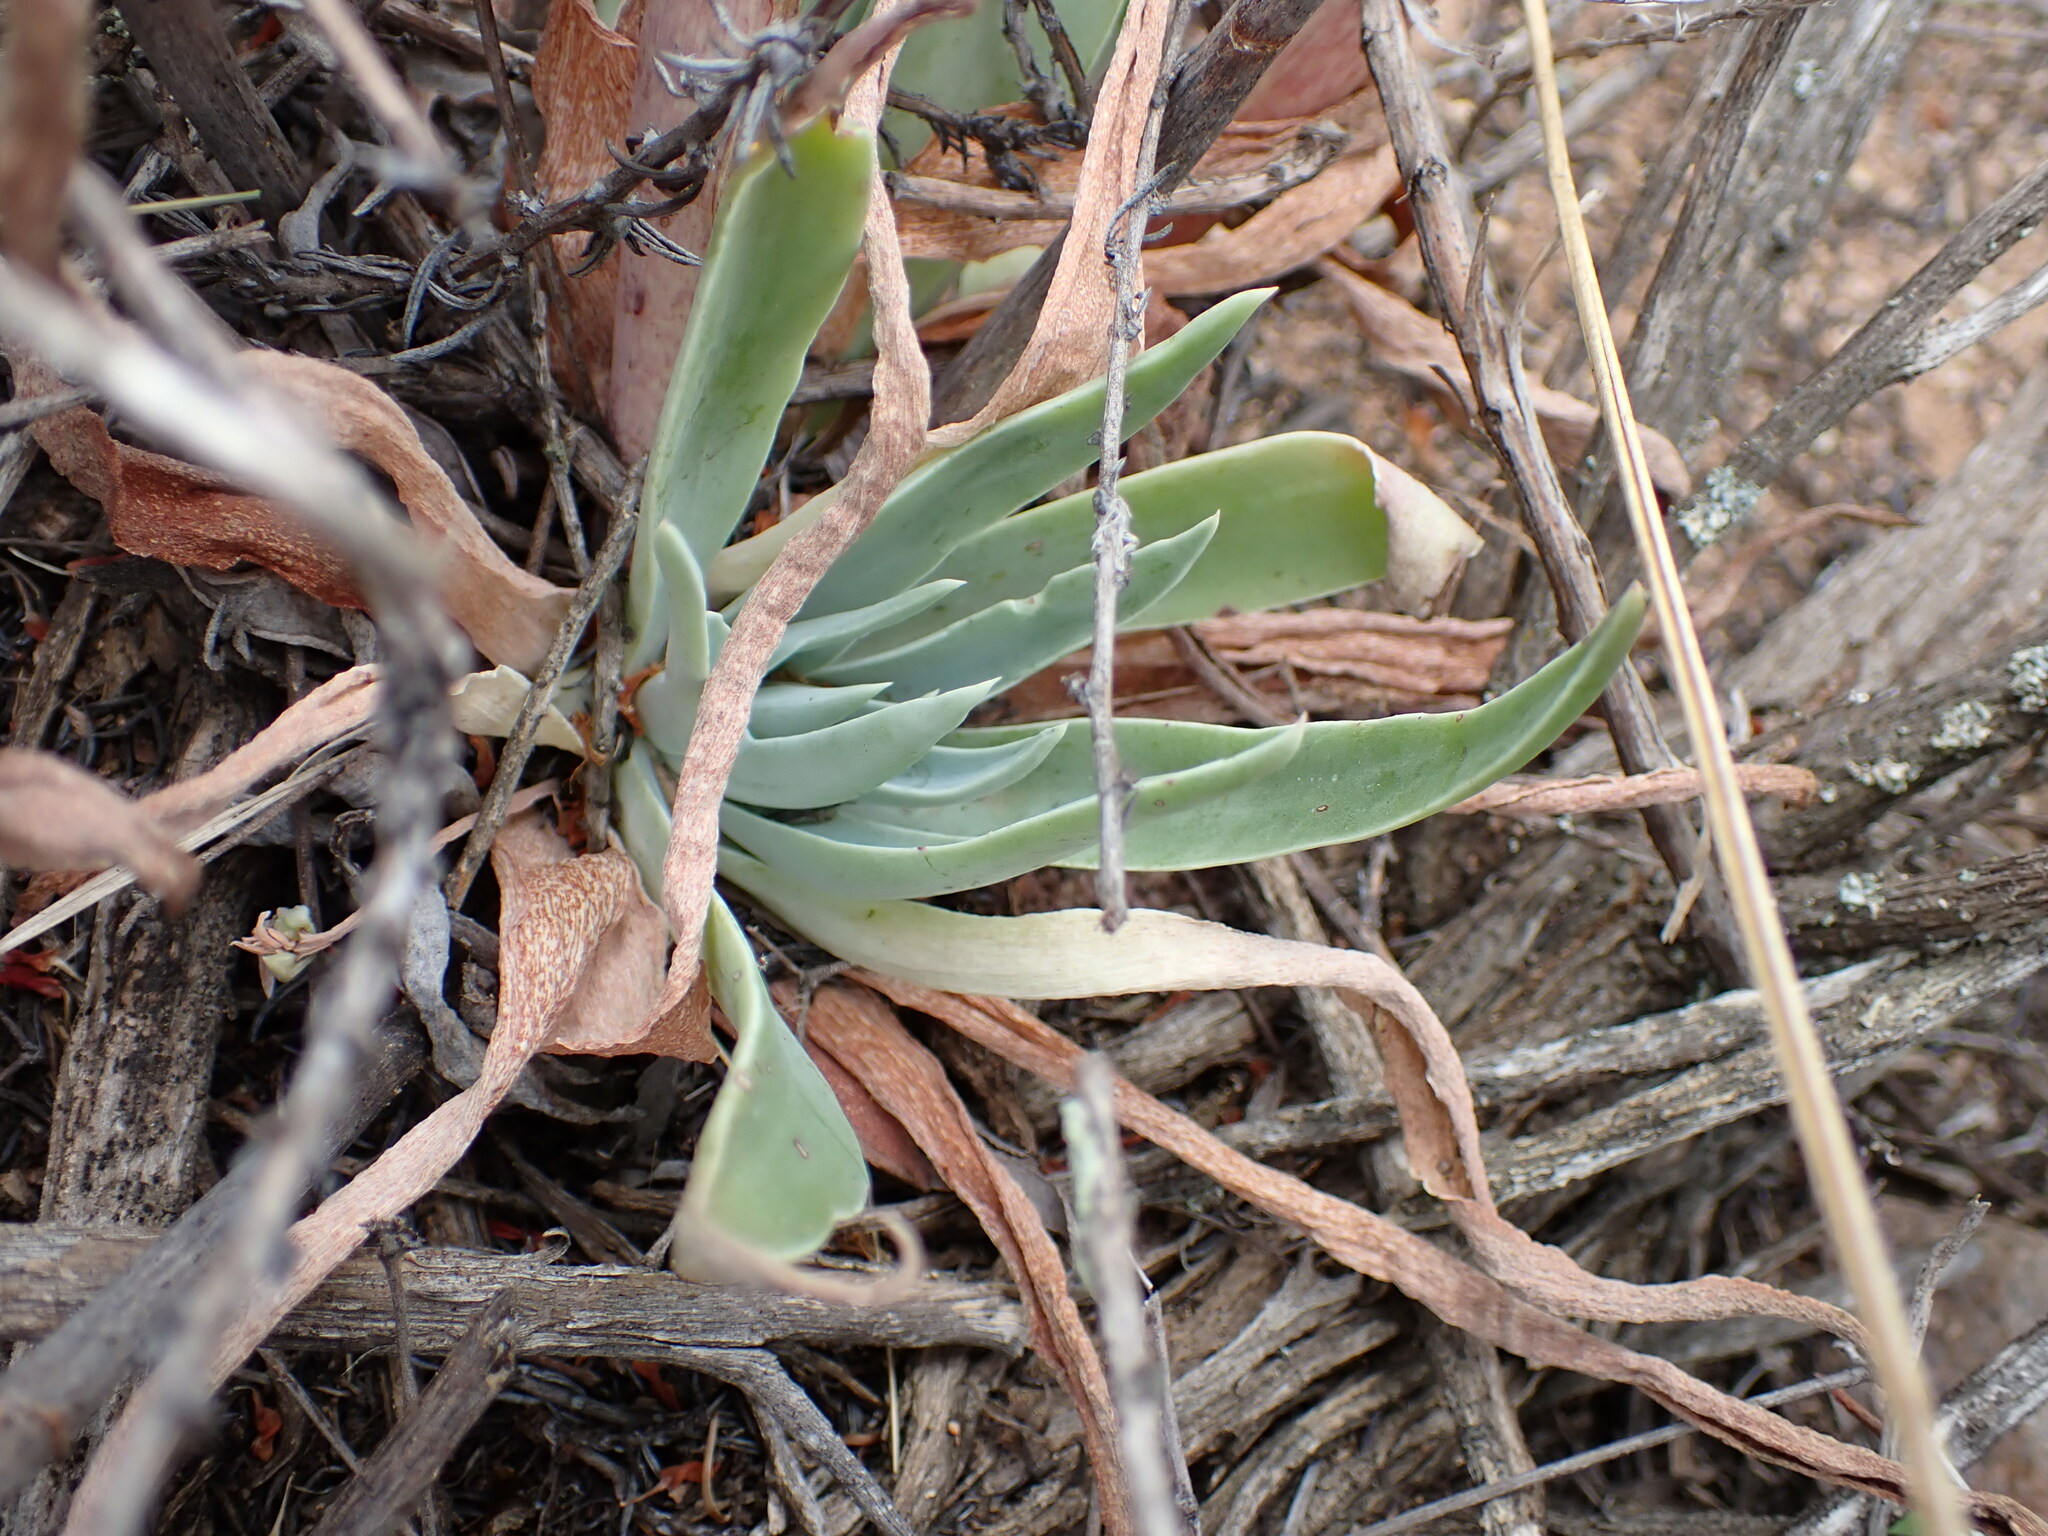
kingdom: Plantae
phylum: Tracheophyta
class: Magnoliopsida
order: Saxifragales
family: Crassulaceae
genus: Dudleya
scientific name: Dudleya lanceolata
